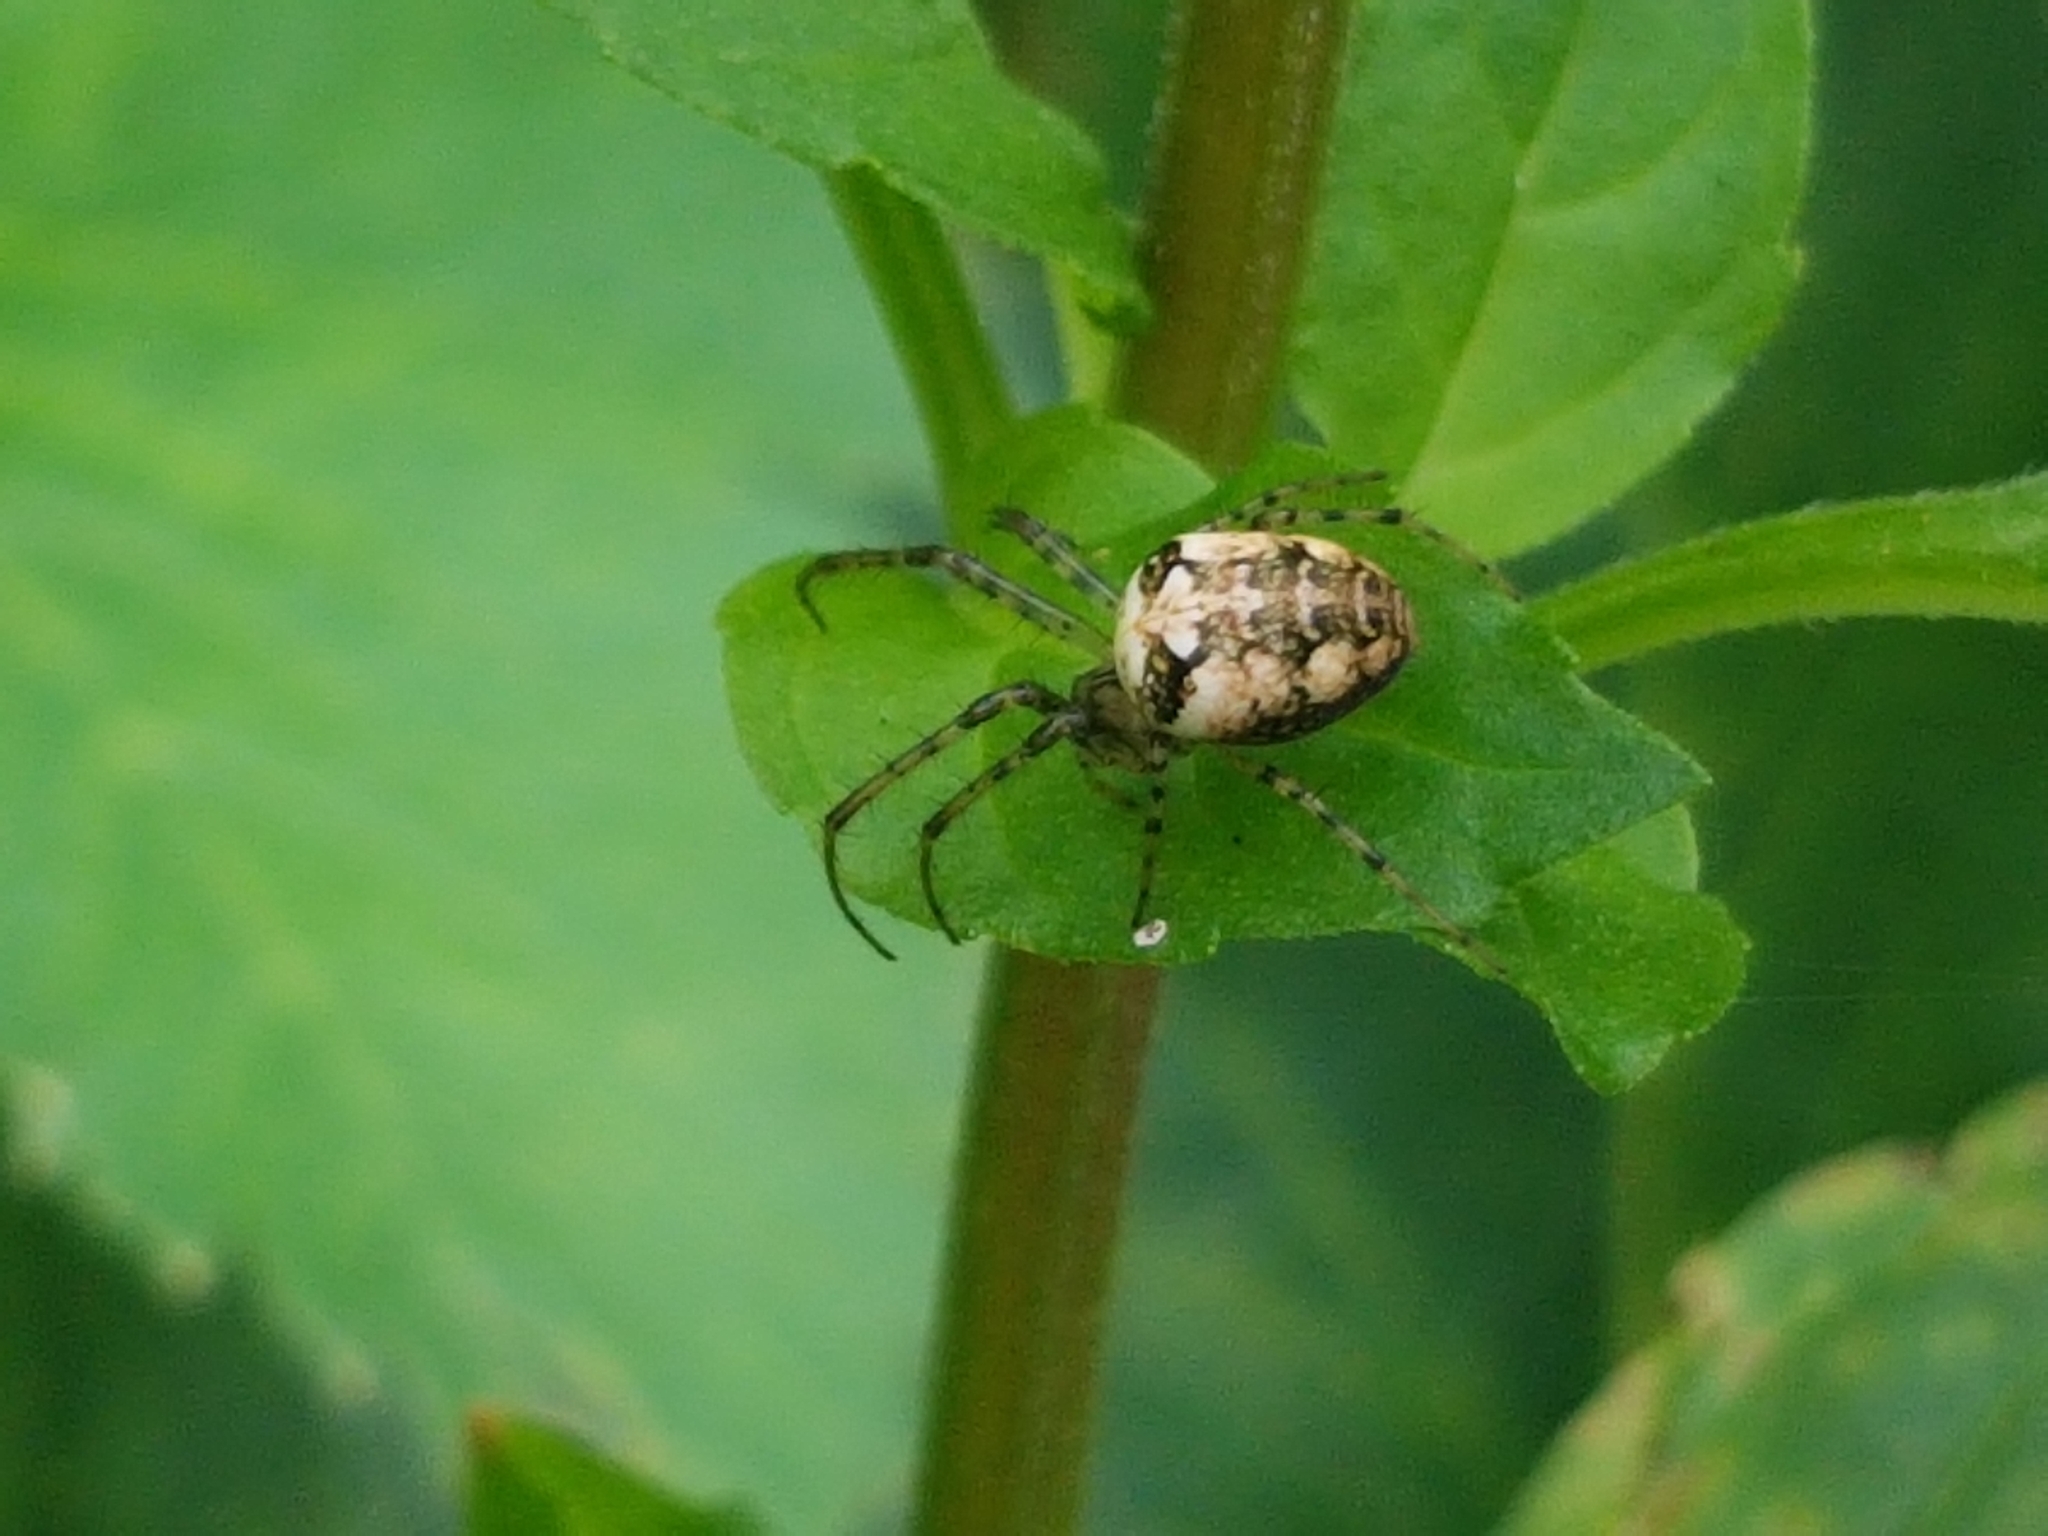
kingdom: Animalia
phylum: Arthropoda
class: Arachnida
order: Araneae
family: Tetragnathidae
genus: Metellina
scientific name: Metellina
